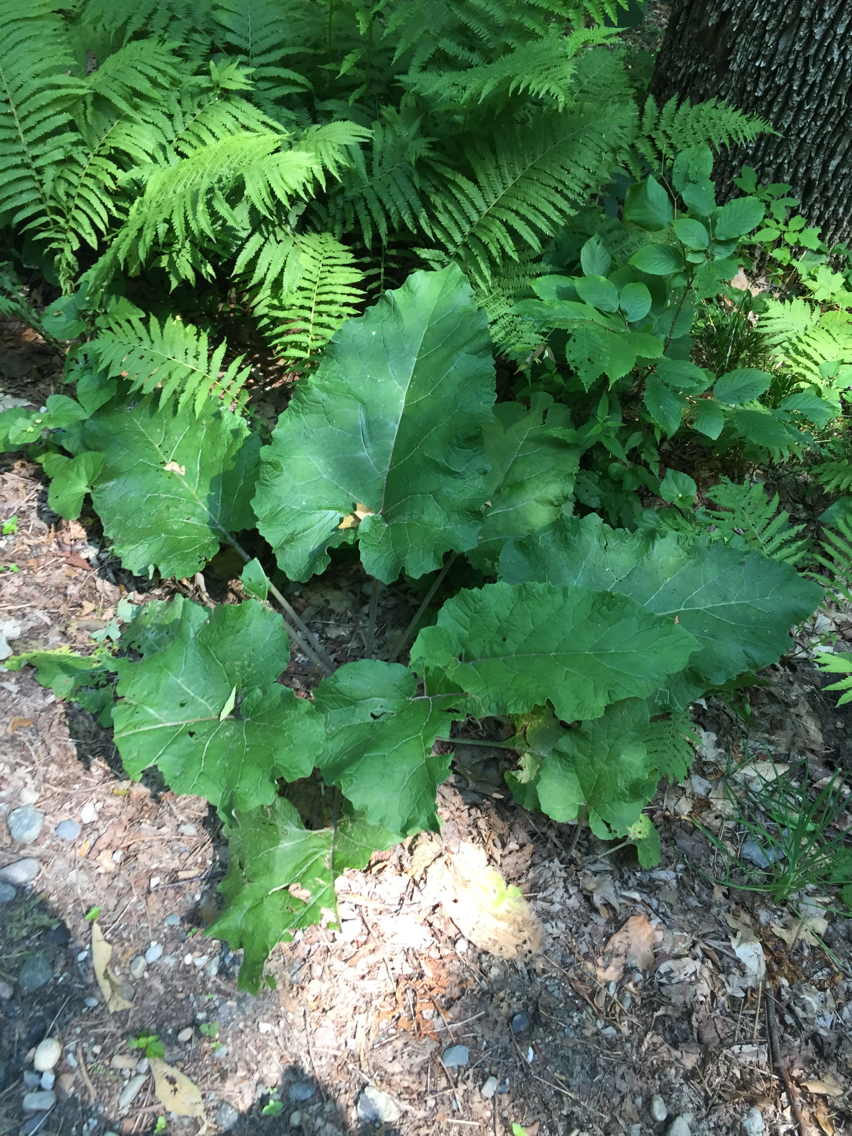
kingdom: Plantae
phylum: Tracheophyta
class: Magnoliopsida
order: Asterales
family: Asteraceae
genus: Arctium
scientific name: Arctium
